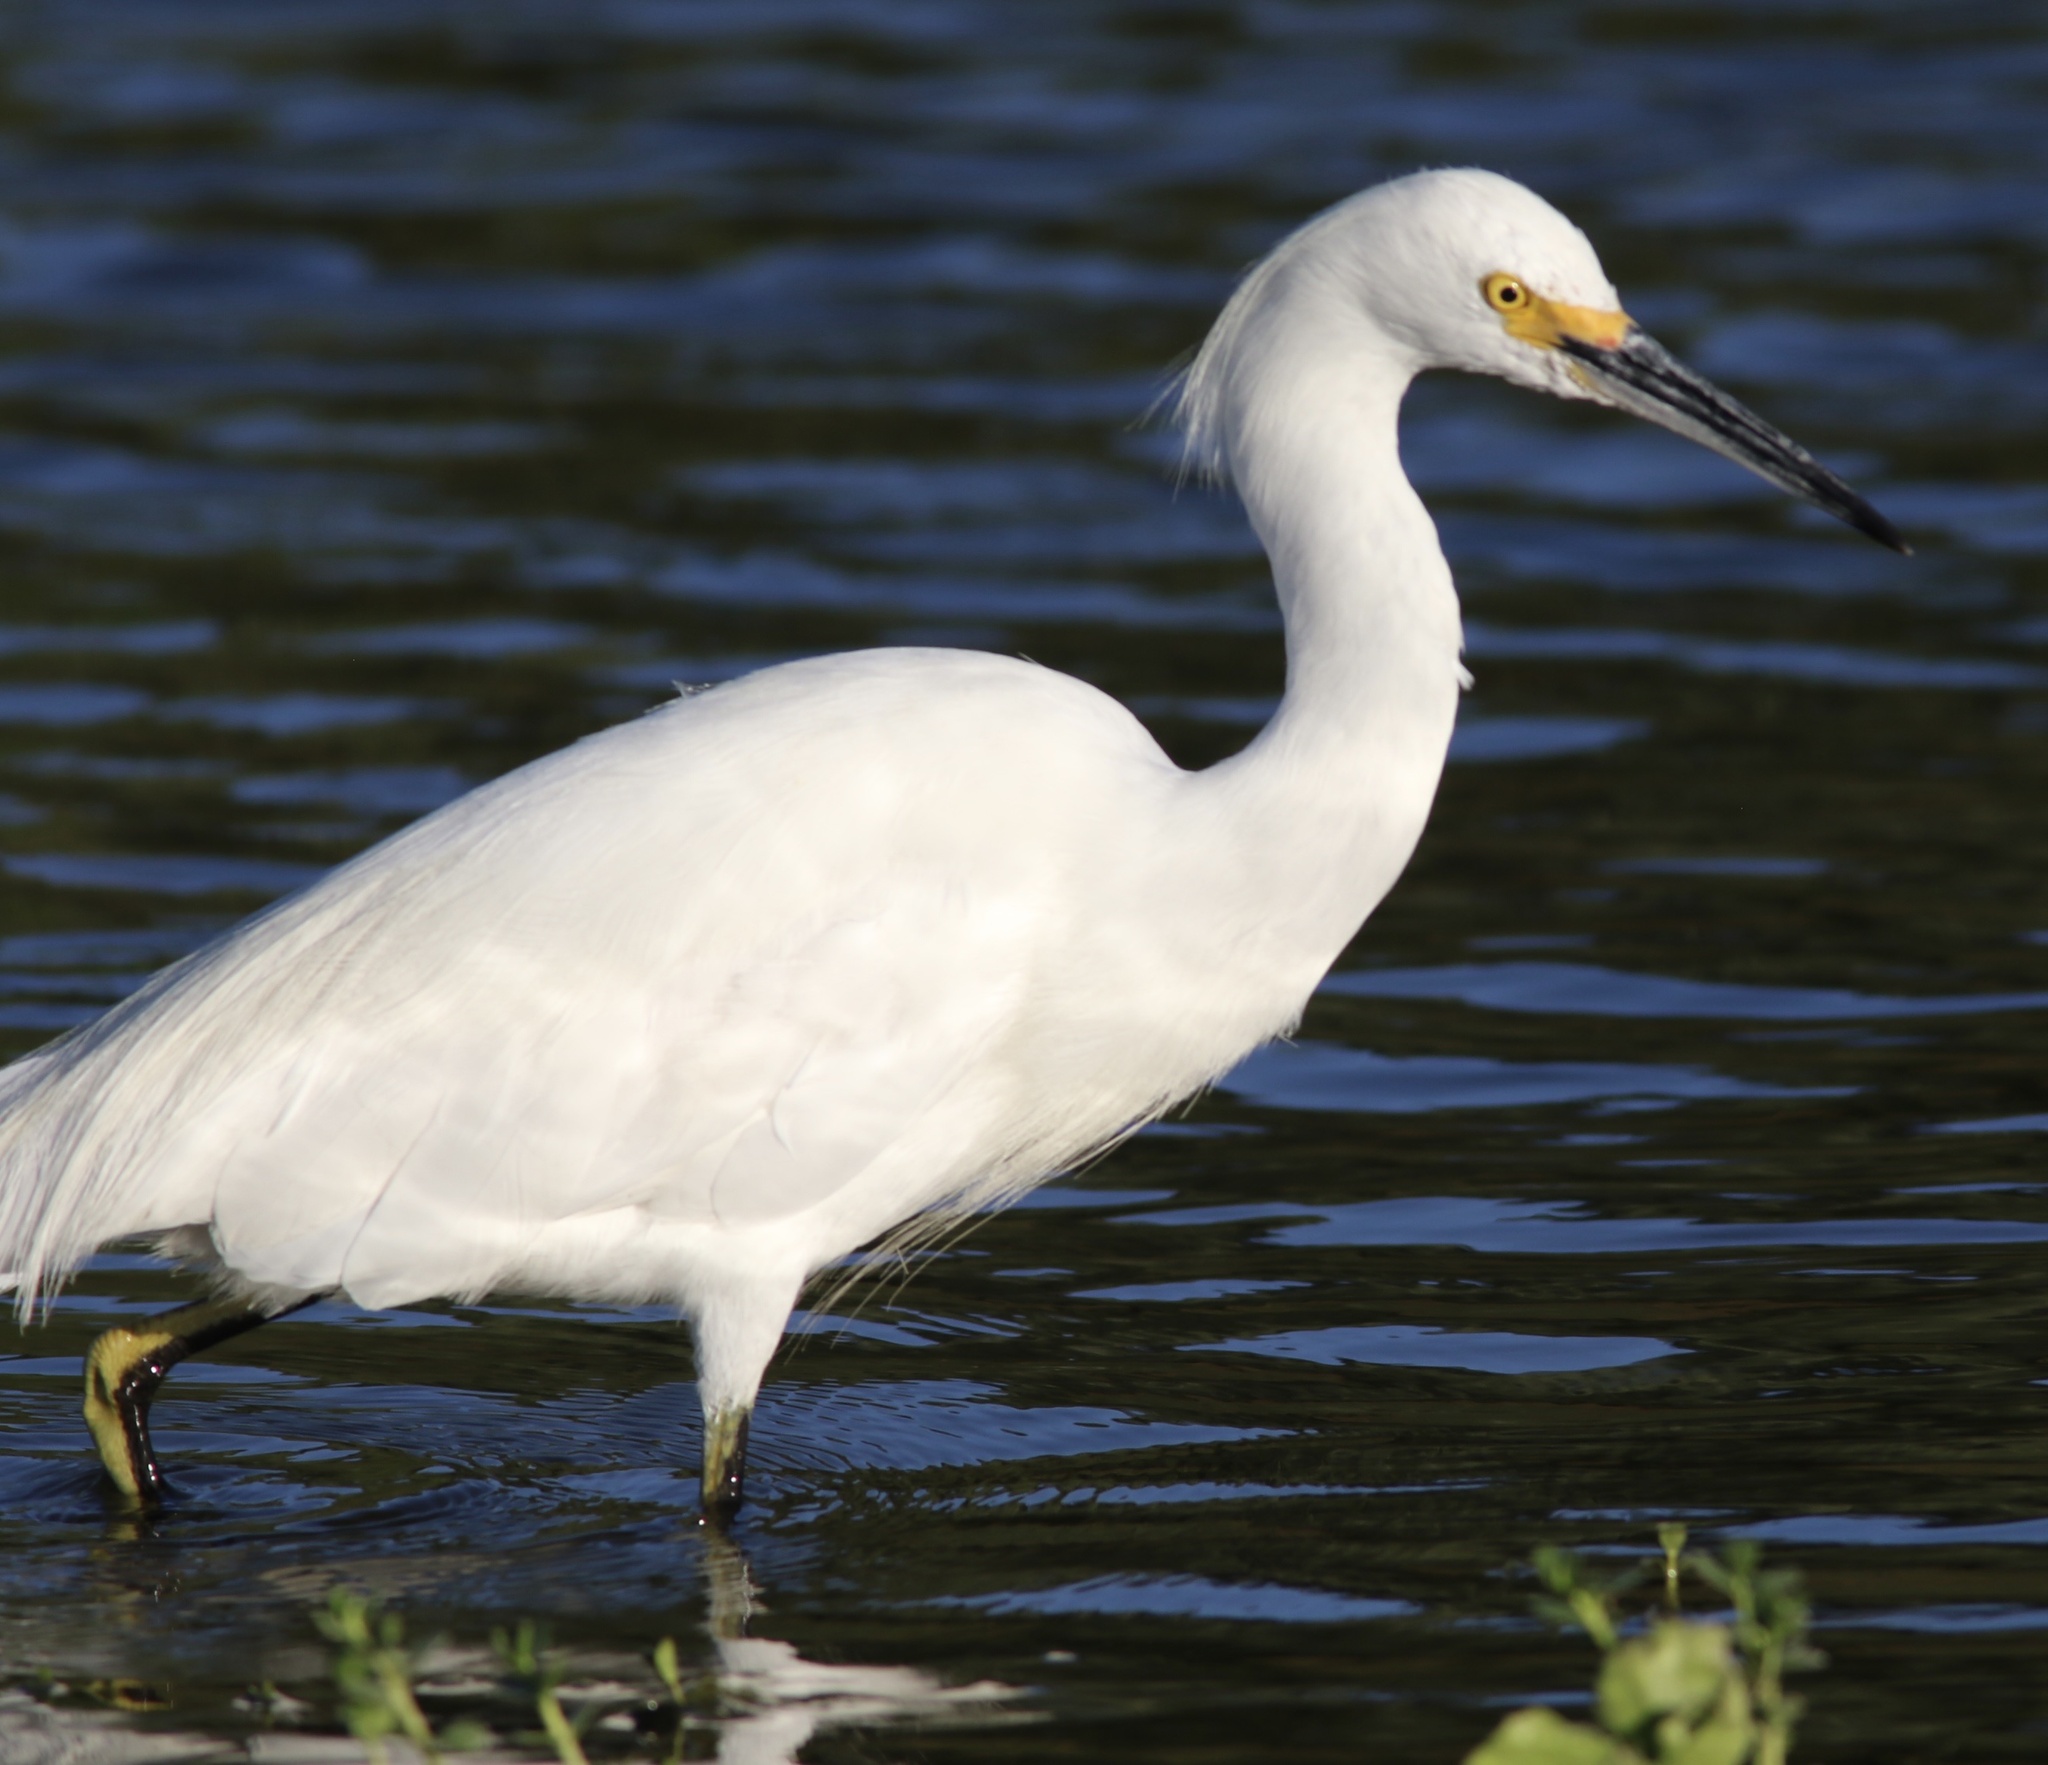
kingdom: Animalia
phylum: Chordata
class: Aves
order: Pelecaniformes
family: Ardeidae
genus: Egretta
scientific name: Egretta thula
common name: Snowy egret
